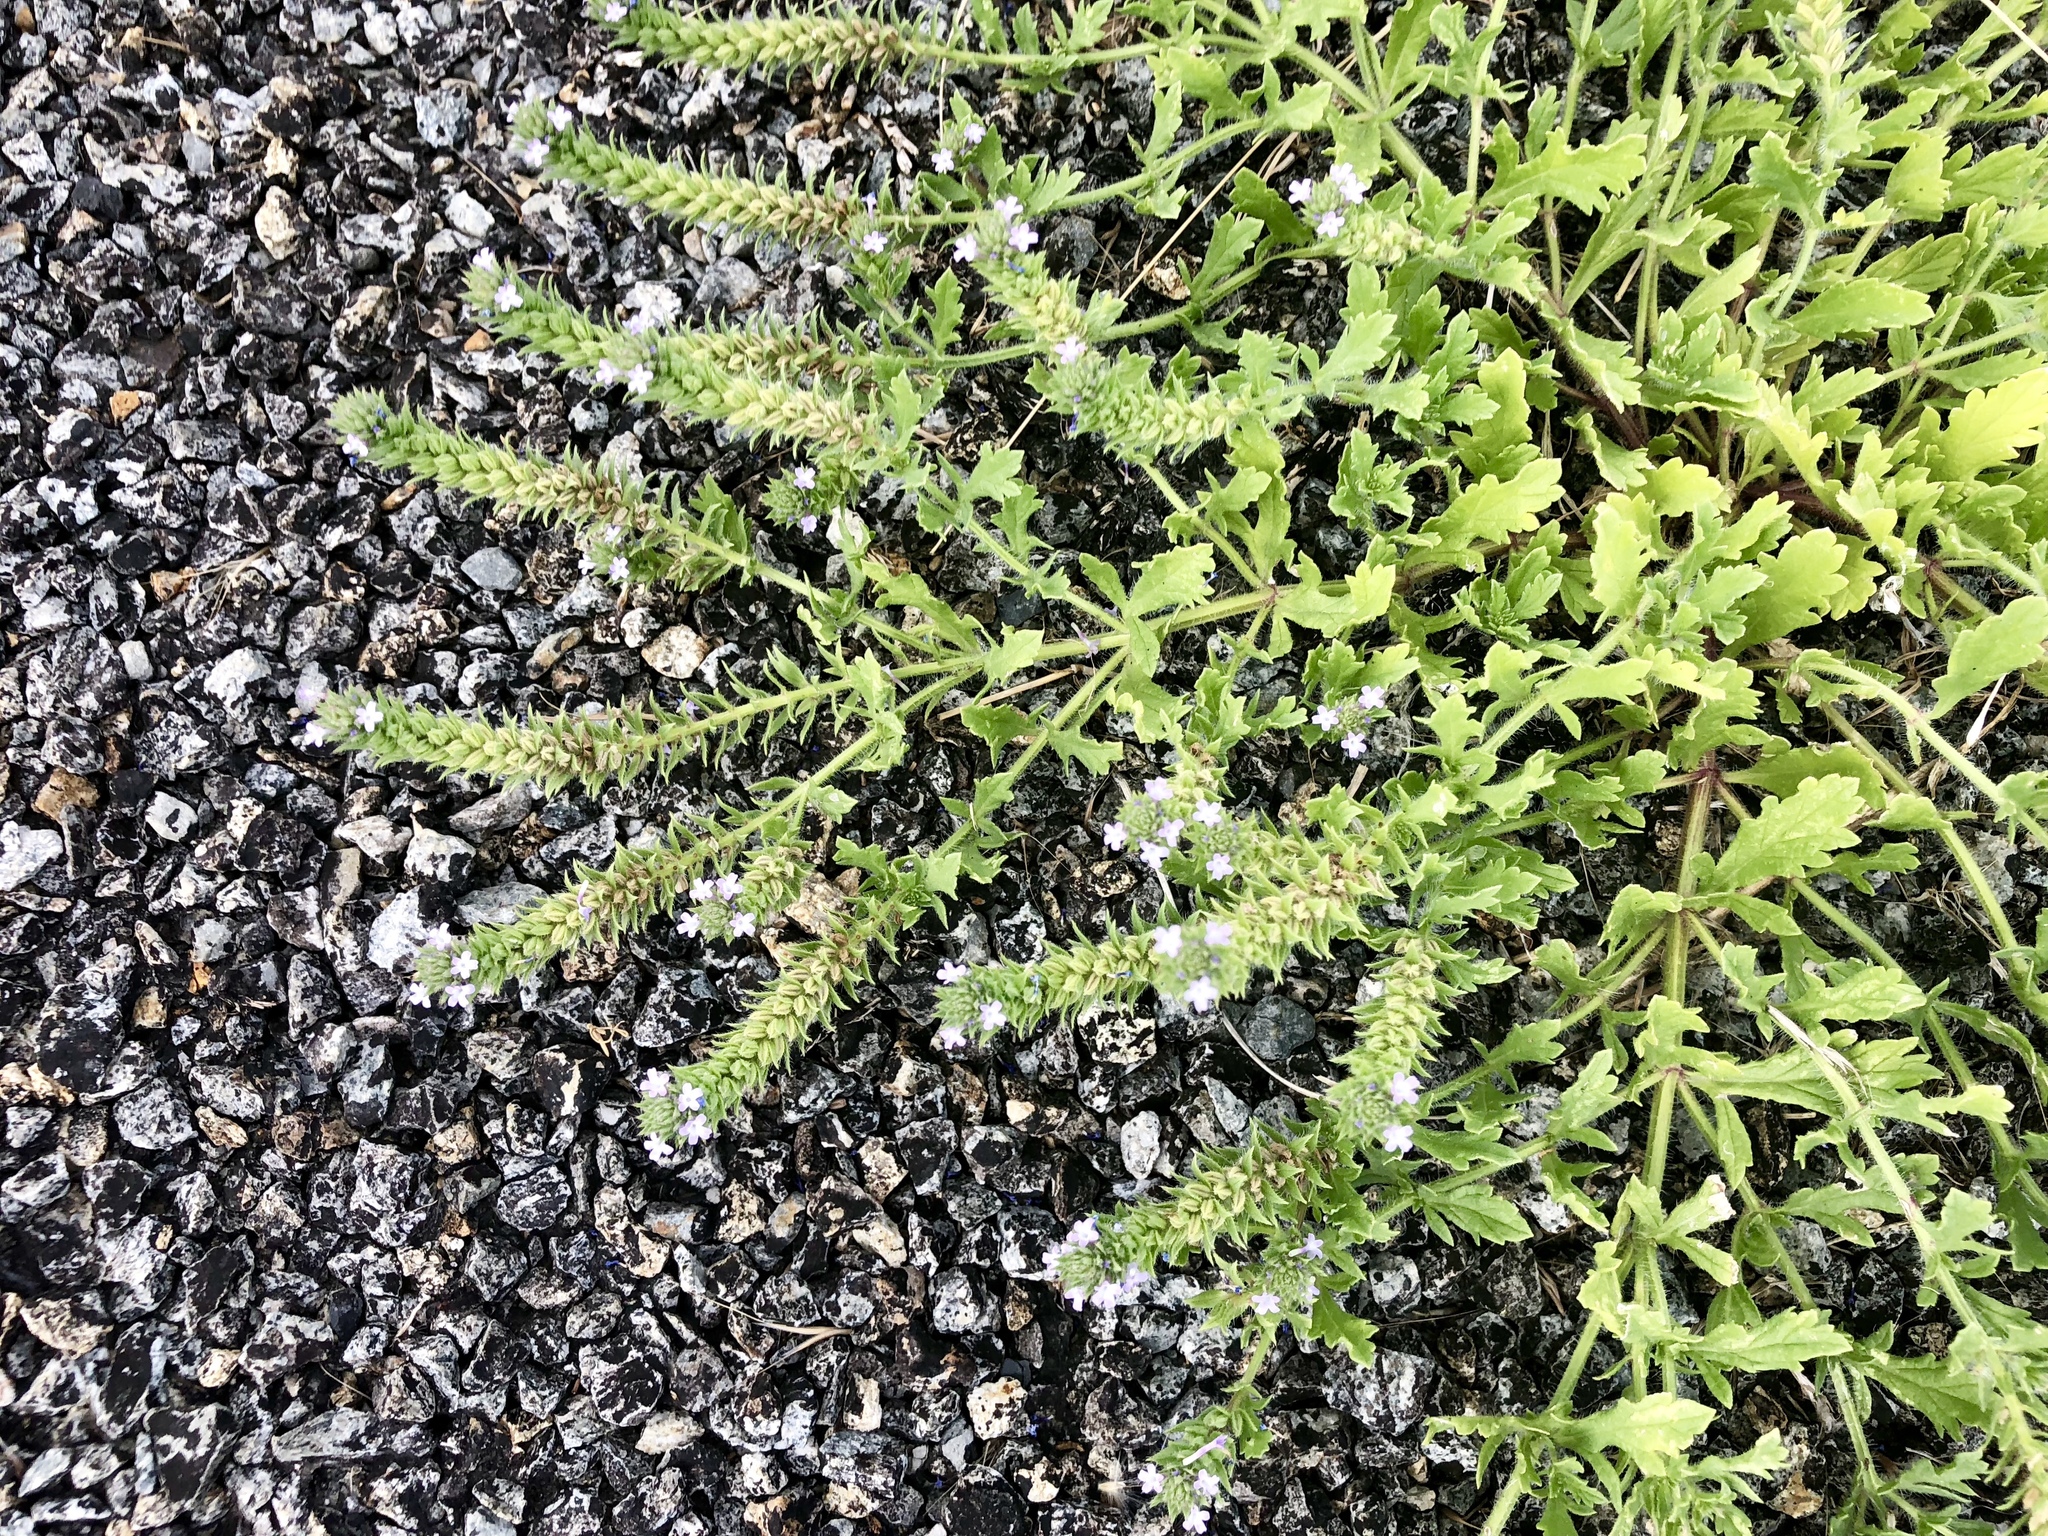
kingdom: Plantae
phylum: Tracheophyta
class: Magnoliopsida
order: Lamiales
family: Verbenaceae
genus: Verbena
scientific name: Verbena bracteata
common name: Bracted vervain
